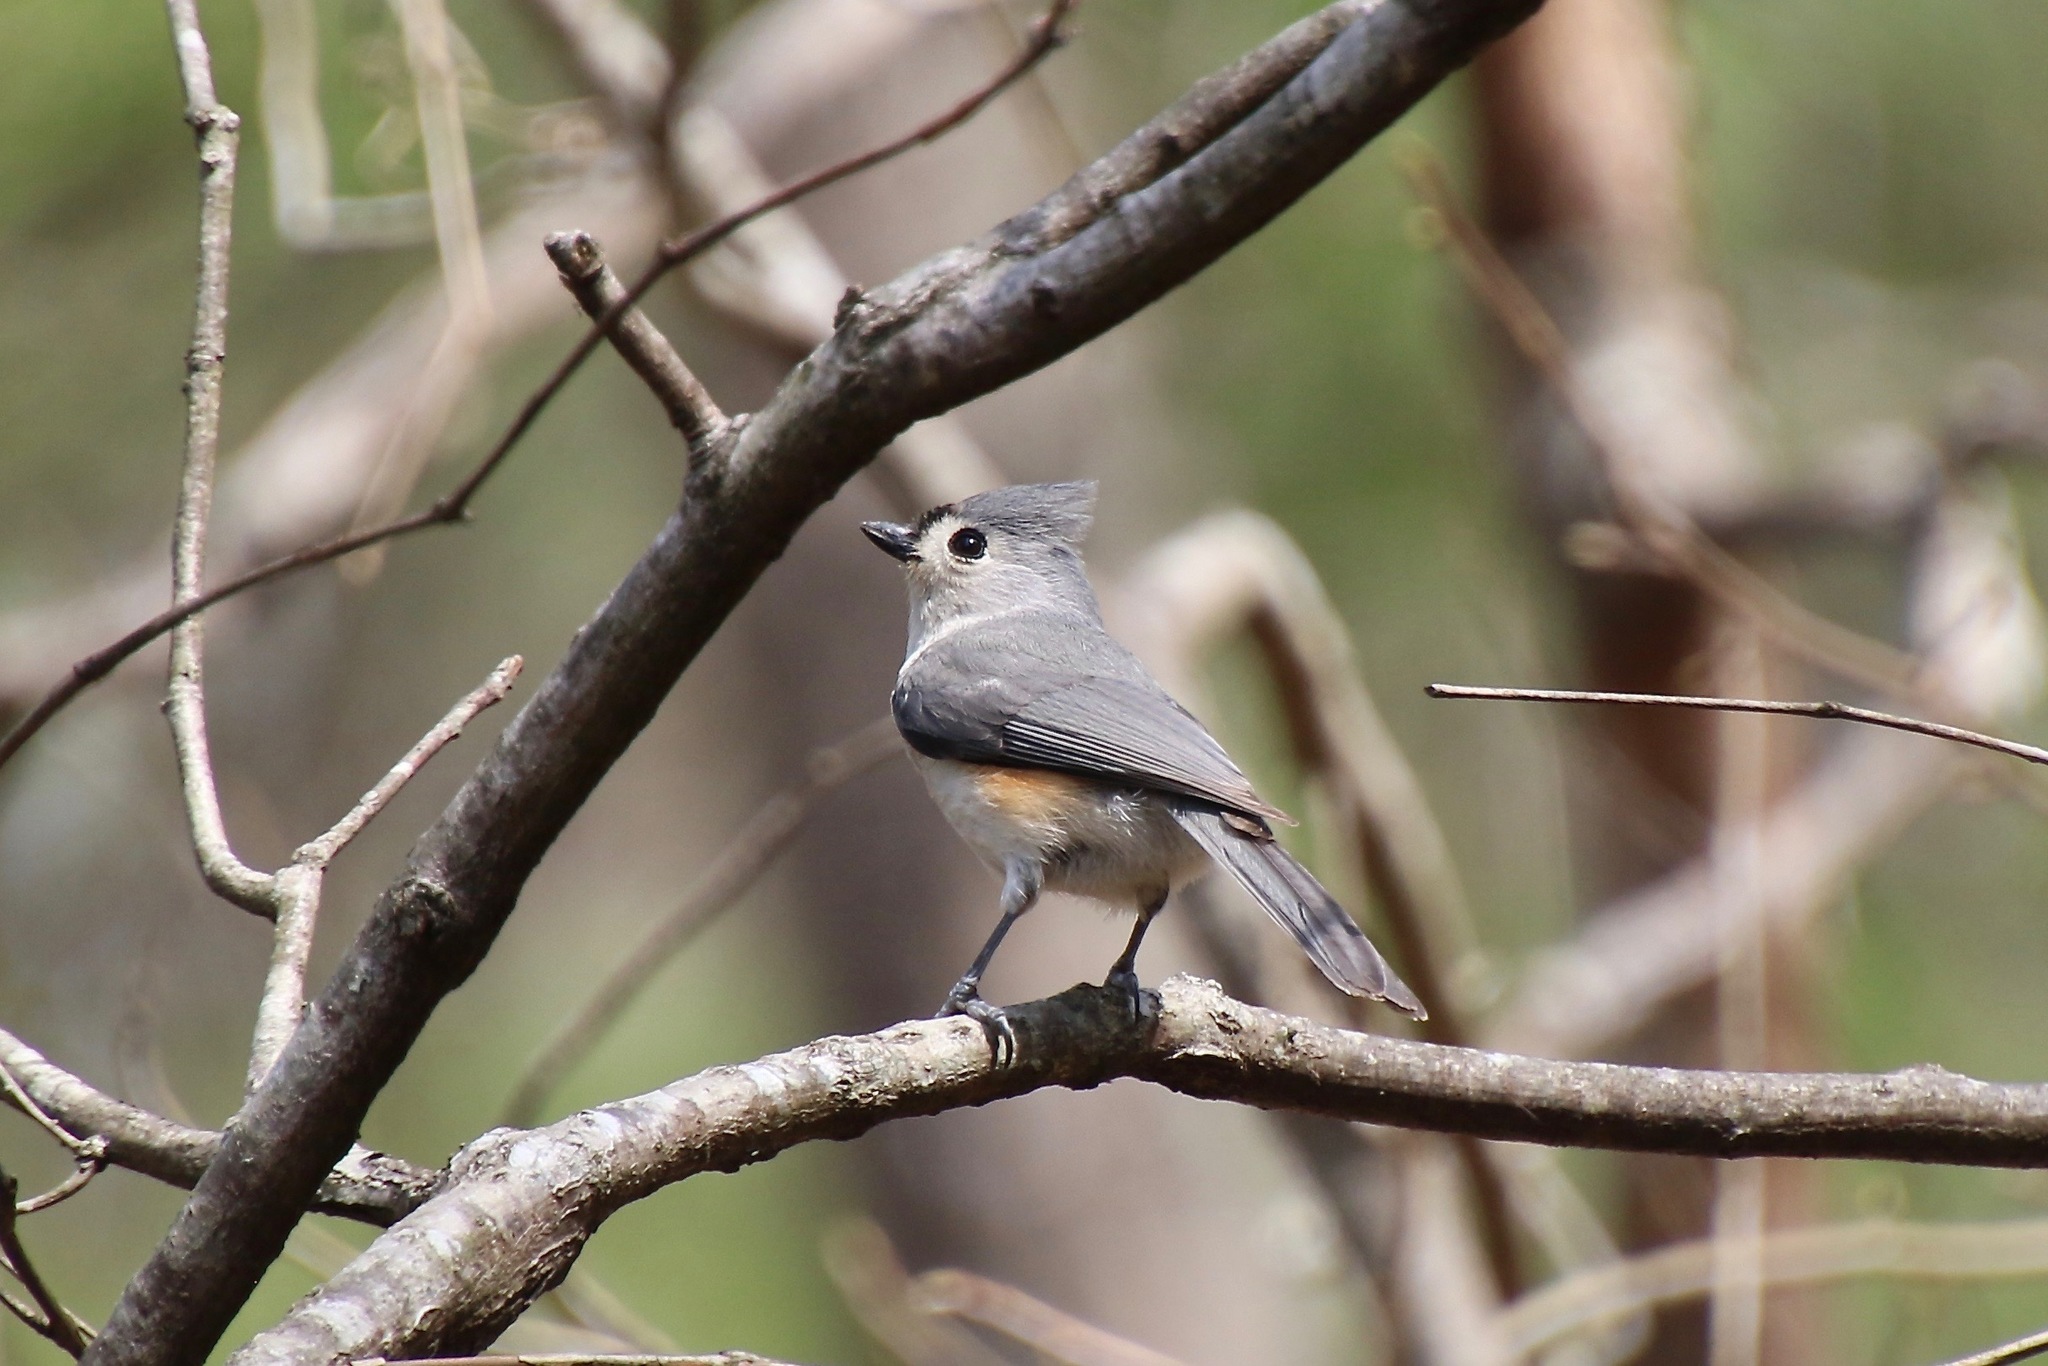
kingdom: Animalia
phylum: Chordata
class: Aves
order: Passeriformes
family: Paridae
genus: Baeolophus
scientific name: Baeolophus bicolor
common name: Tufted titmouse
